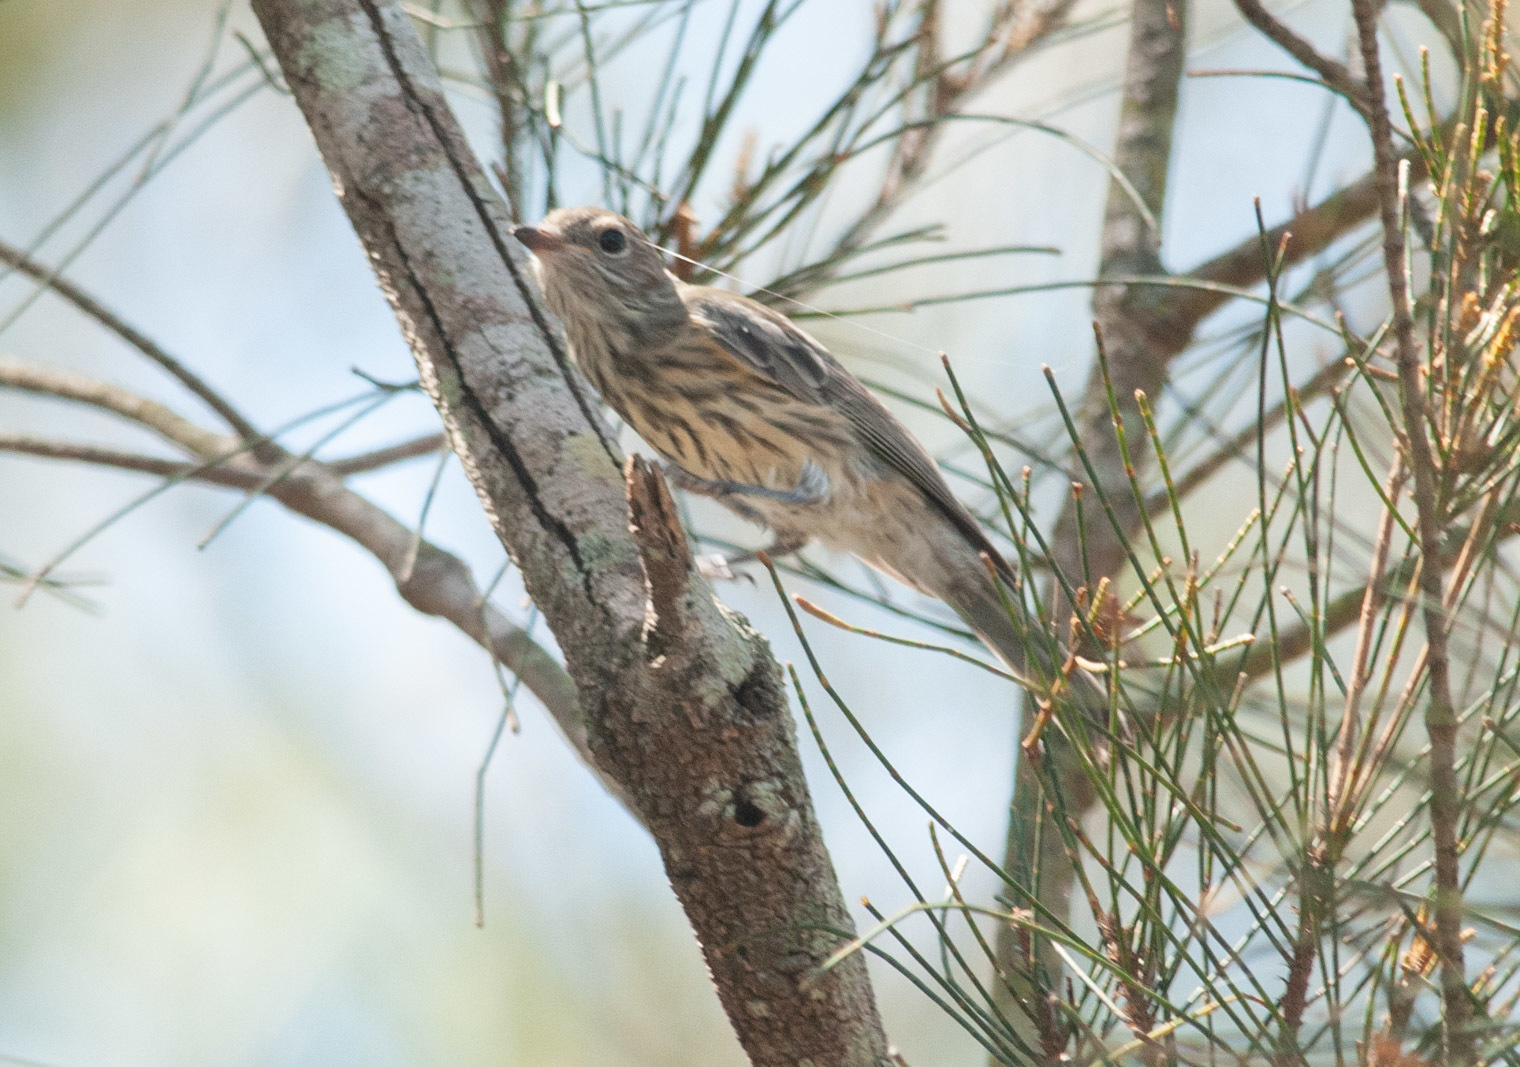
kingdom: Animalia
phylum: Chordata
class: Aves
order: Passeriformes
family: Pachycephalidae
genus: Pachycephala
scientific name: Pachycephala rufiventris
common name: Rufous whistler
